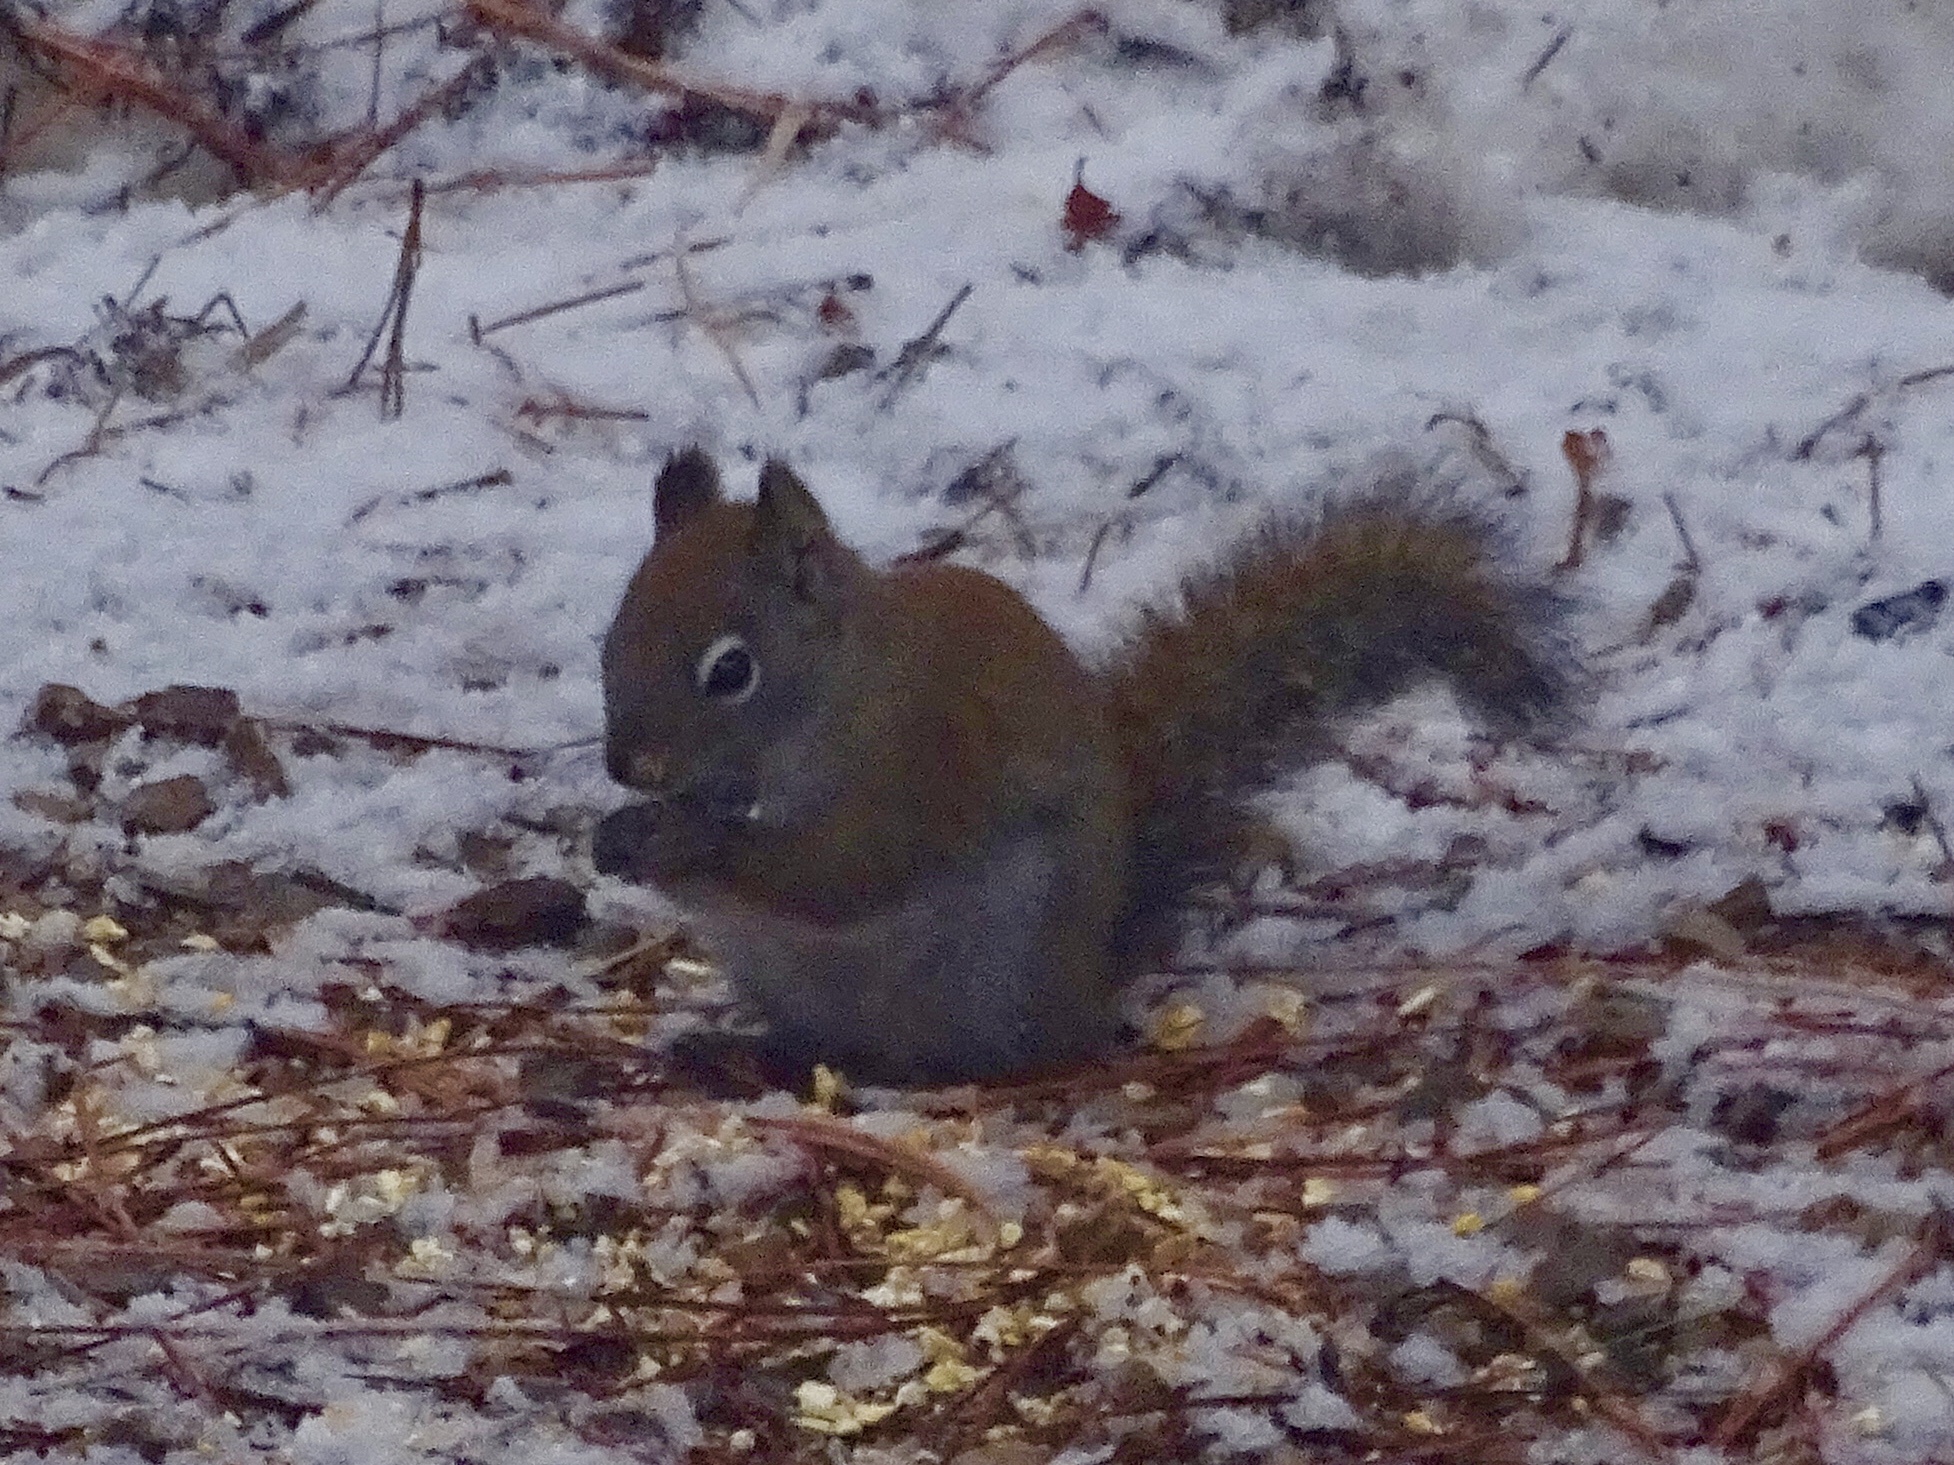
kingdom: Animalia
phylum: Chordata
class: Mammalia
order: Rodentia
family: Sciuridae
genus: Tamiasciurus
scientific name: Tamiasciurus hudsonicus
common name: Red squirrel
